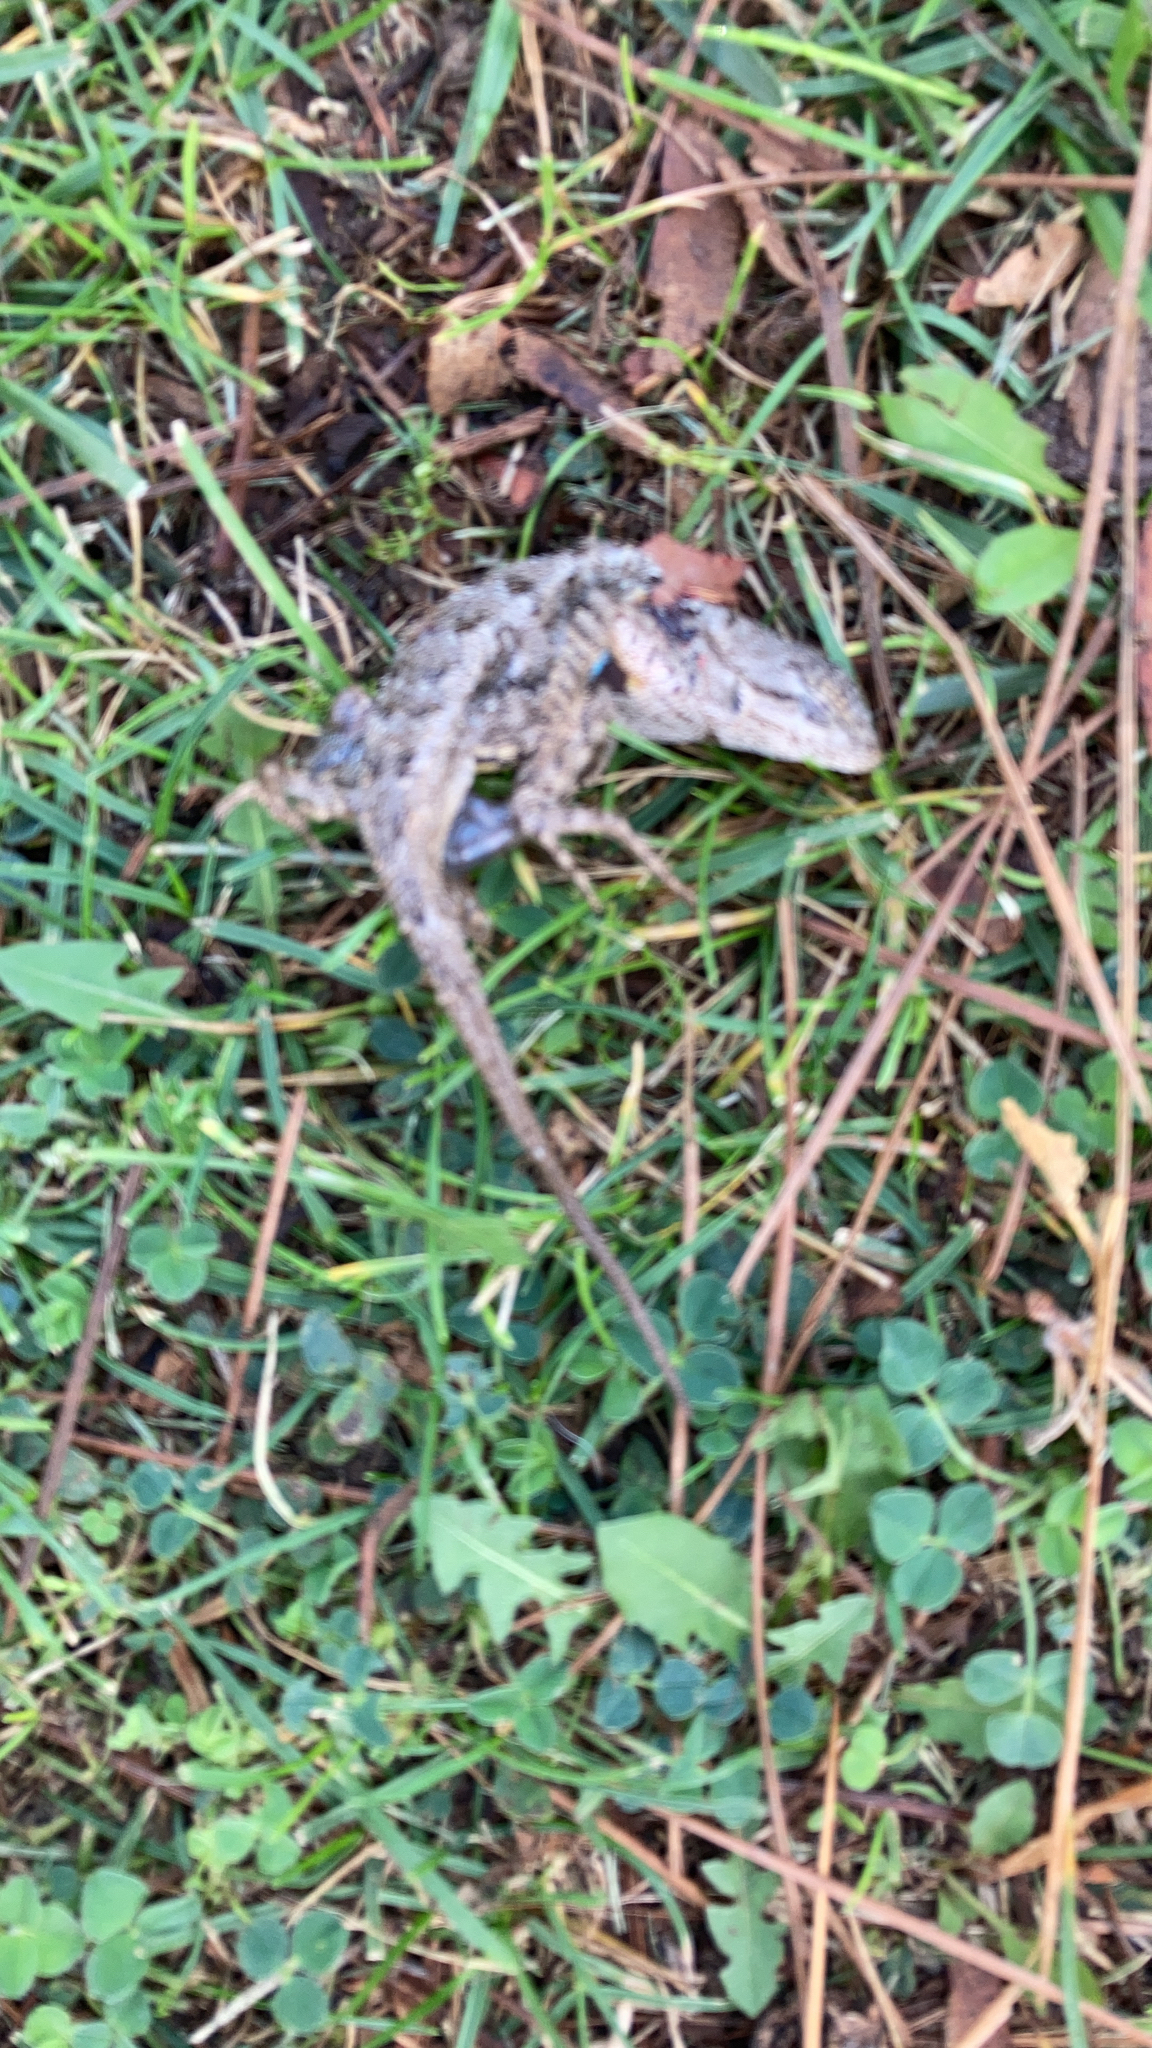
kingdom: Animalia
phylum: Chordata
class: Squamata
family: Phrynosomatidae
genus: Sceloporus
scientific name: Sceloporus occidentalis
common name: Western fence lizard
